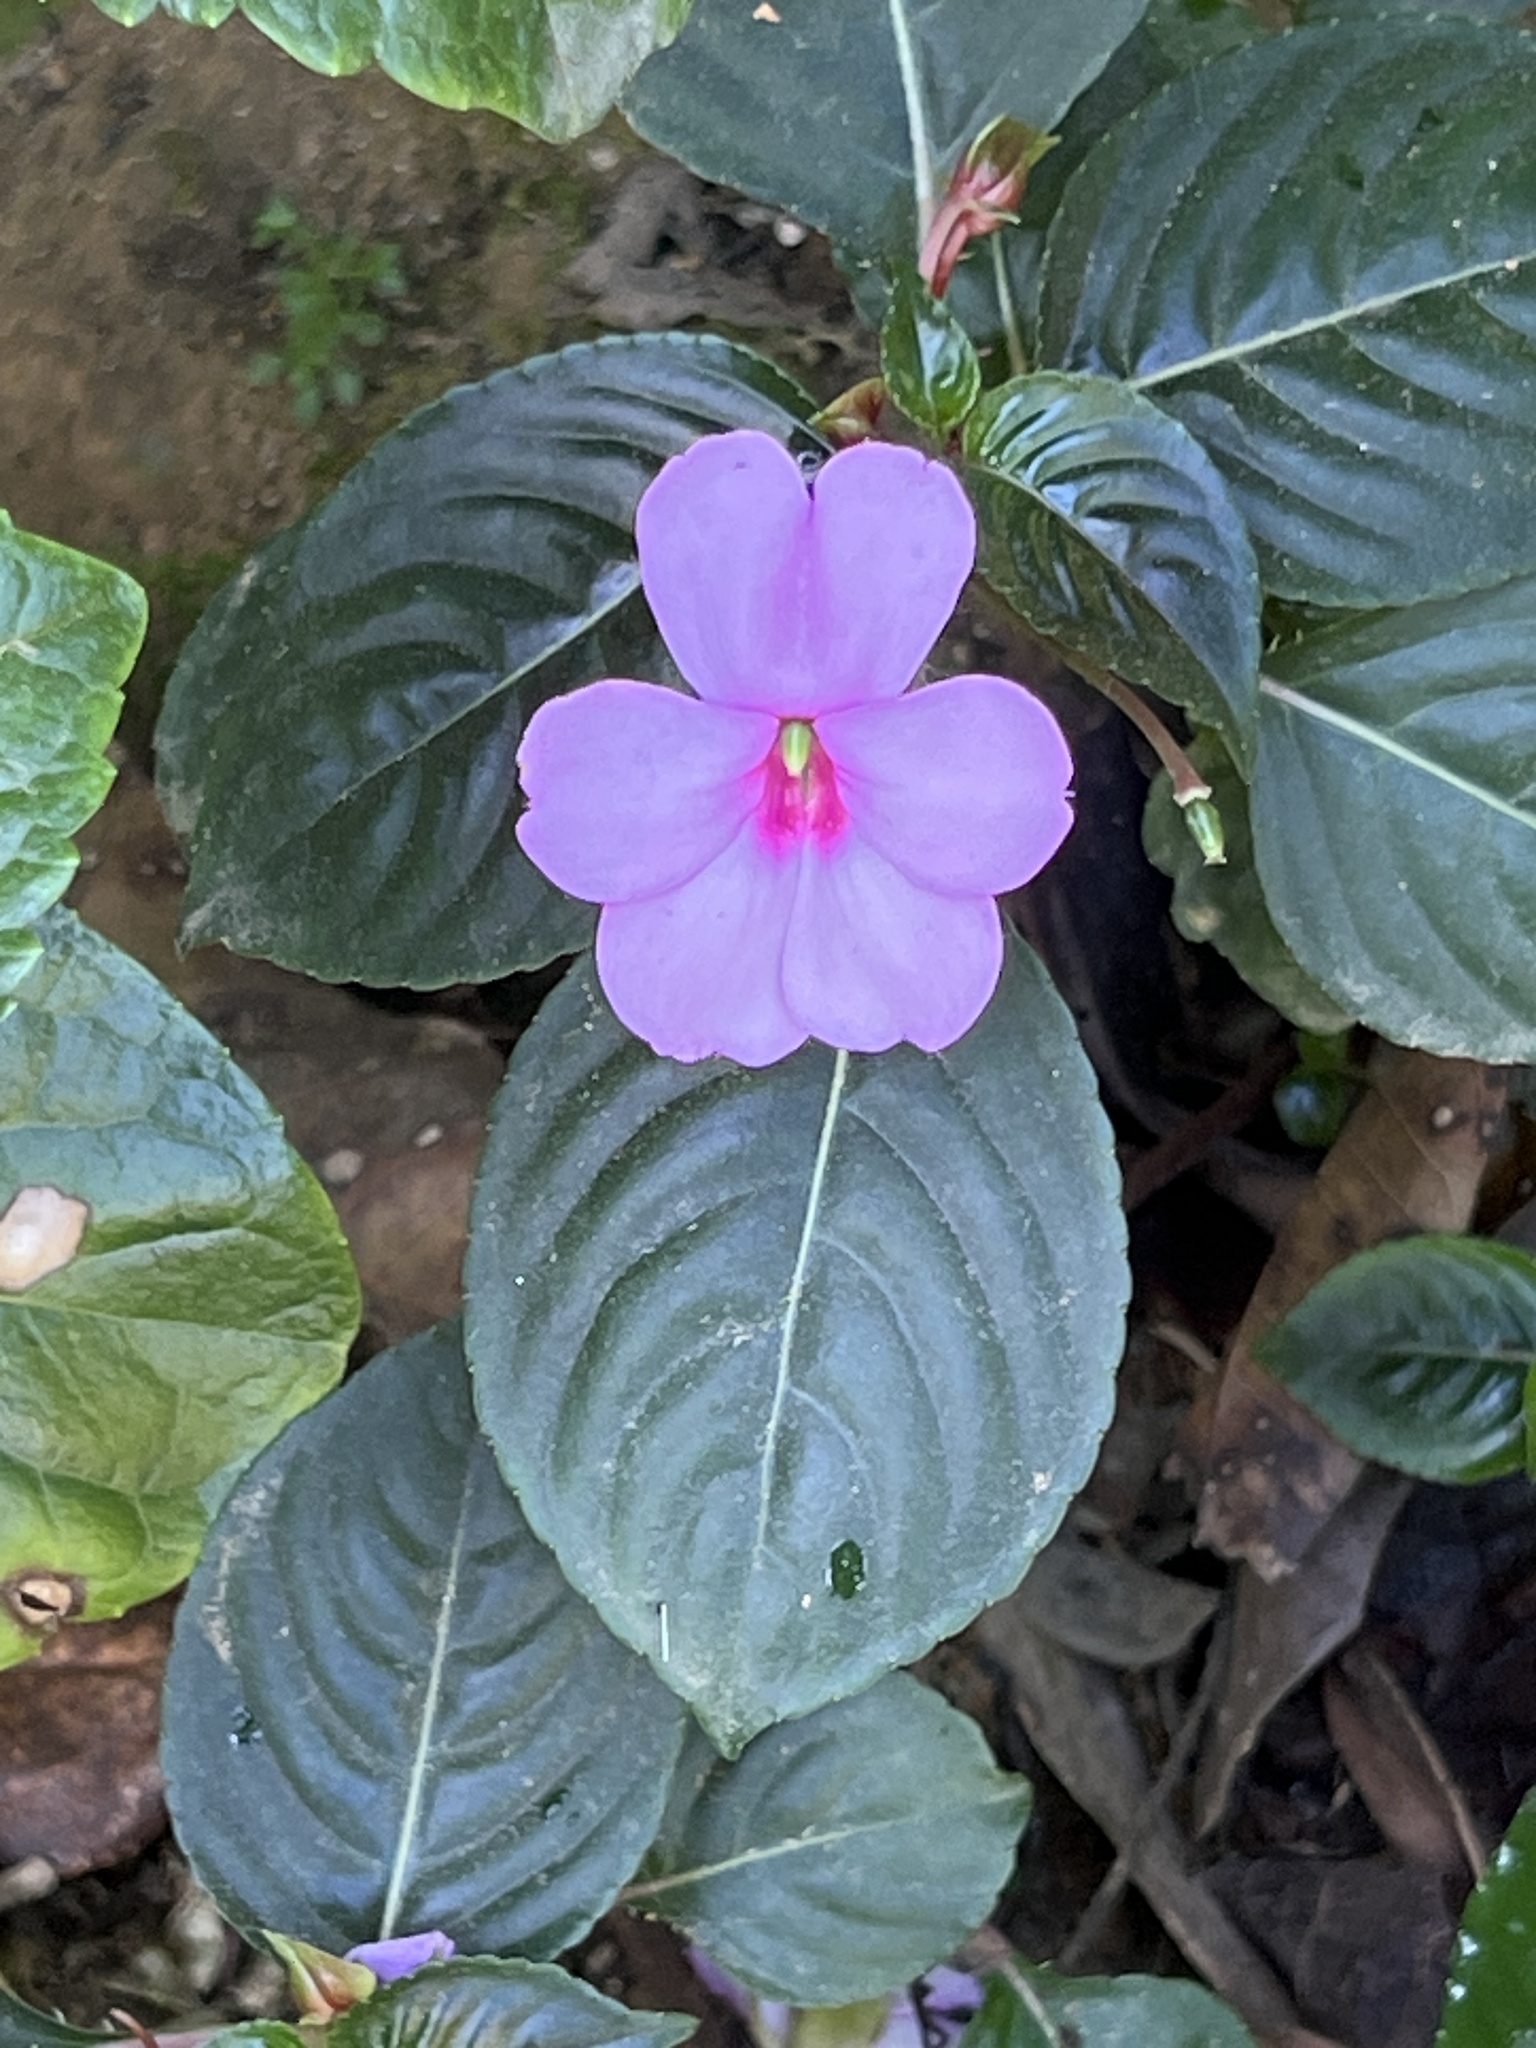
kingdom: Plantae
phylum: Tracheophyta
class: Magnoliopsida
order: Ericales
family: Balsaminaceae
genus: Impatiens
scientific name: Impatiens flaccida
